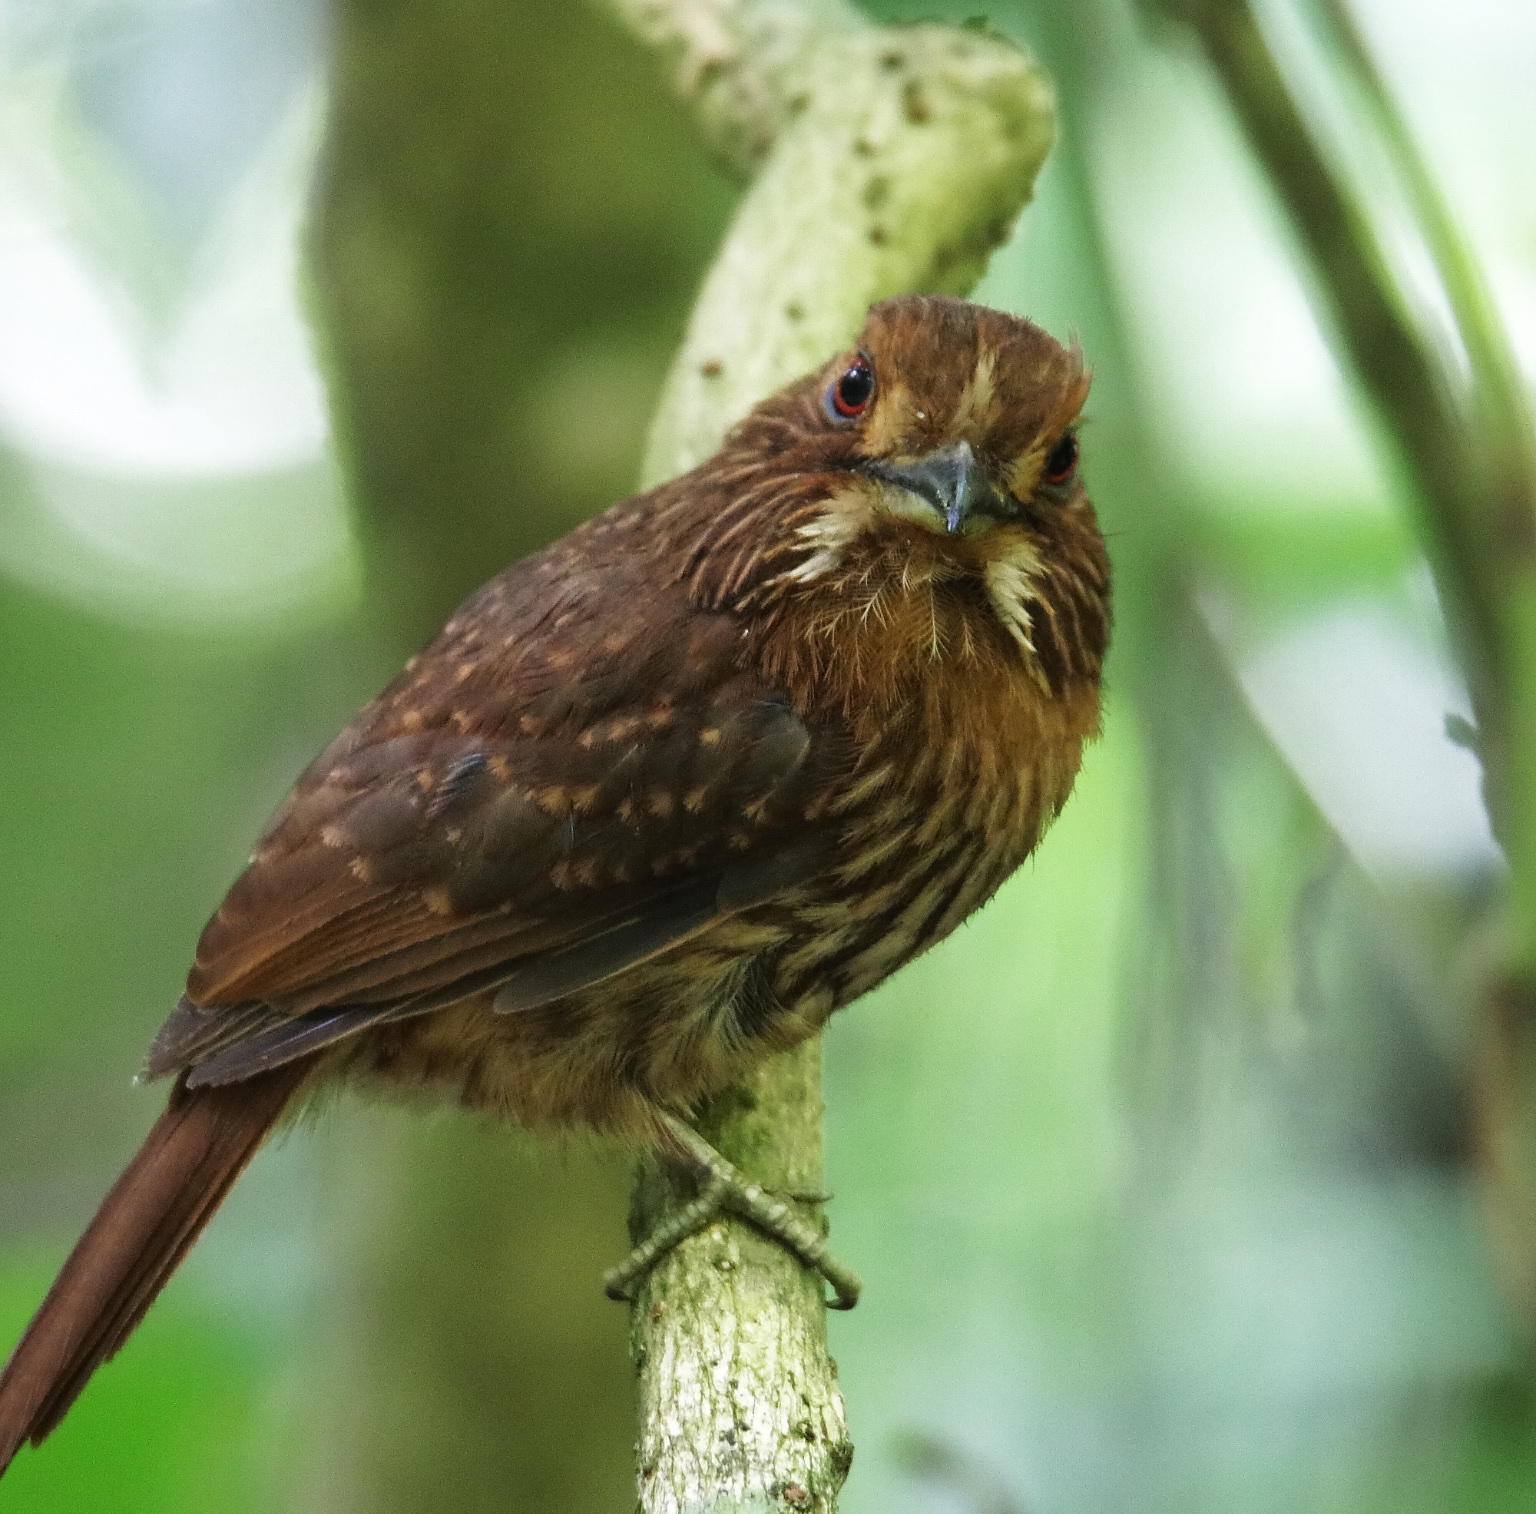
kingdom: Animalia
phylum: Chordata
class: Aves
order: Piciformes
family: Bucconidae
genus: Malacoptila
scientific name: Malacoptila panamensis
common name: White-whiskered puffbird
